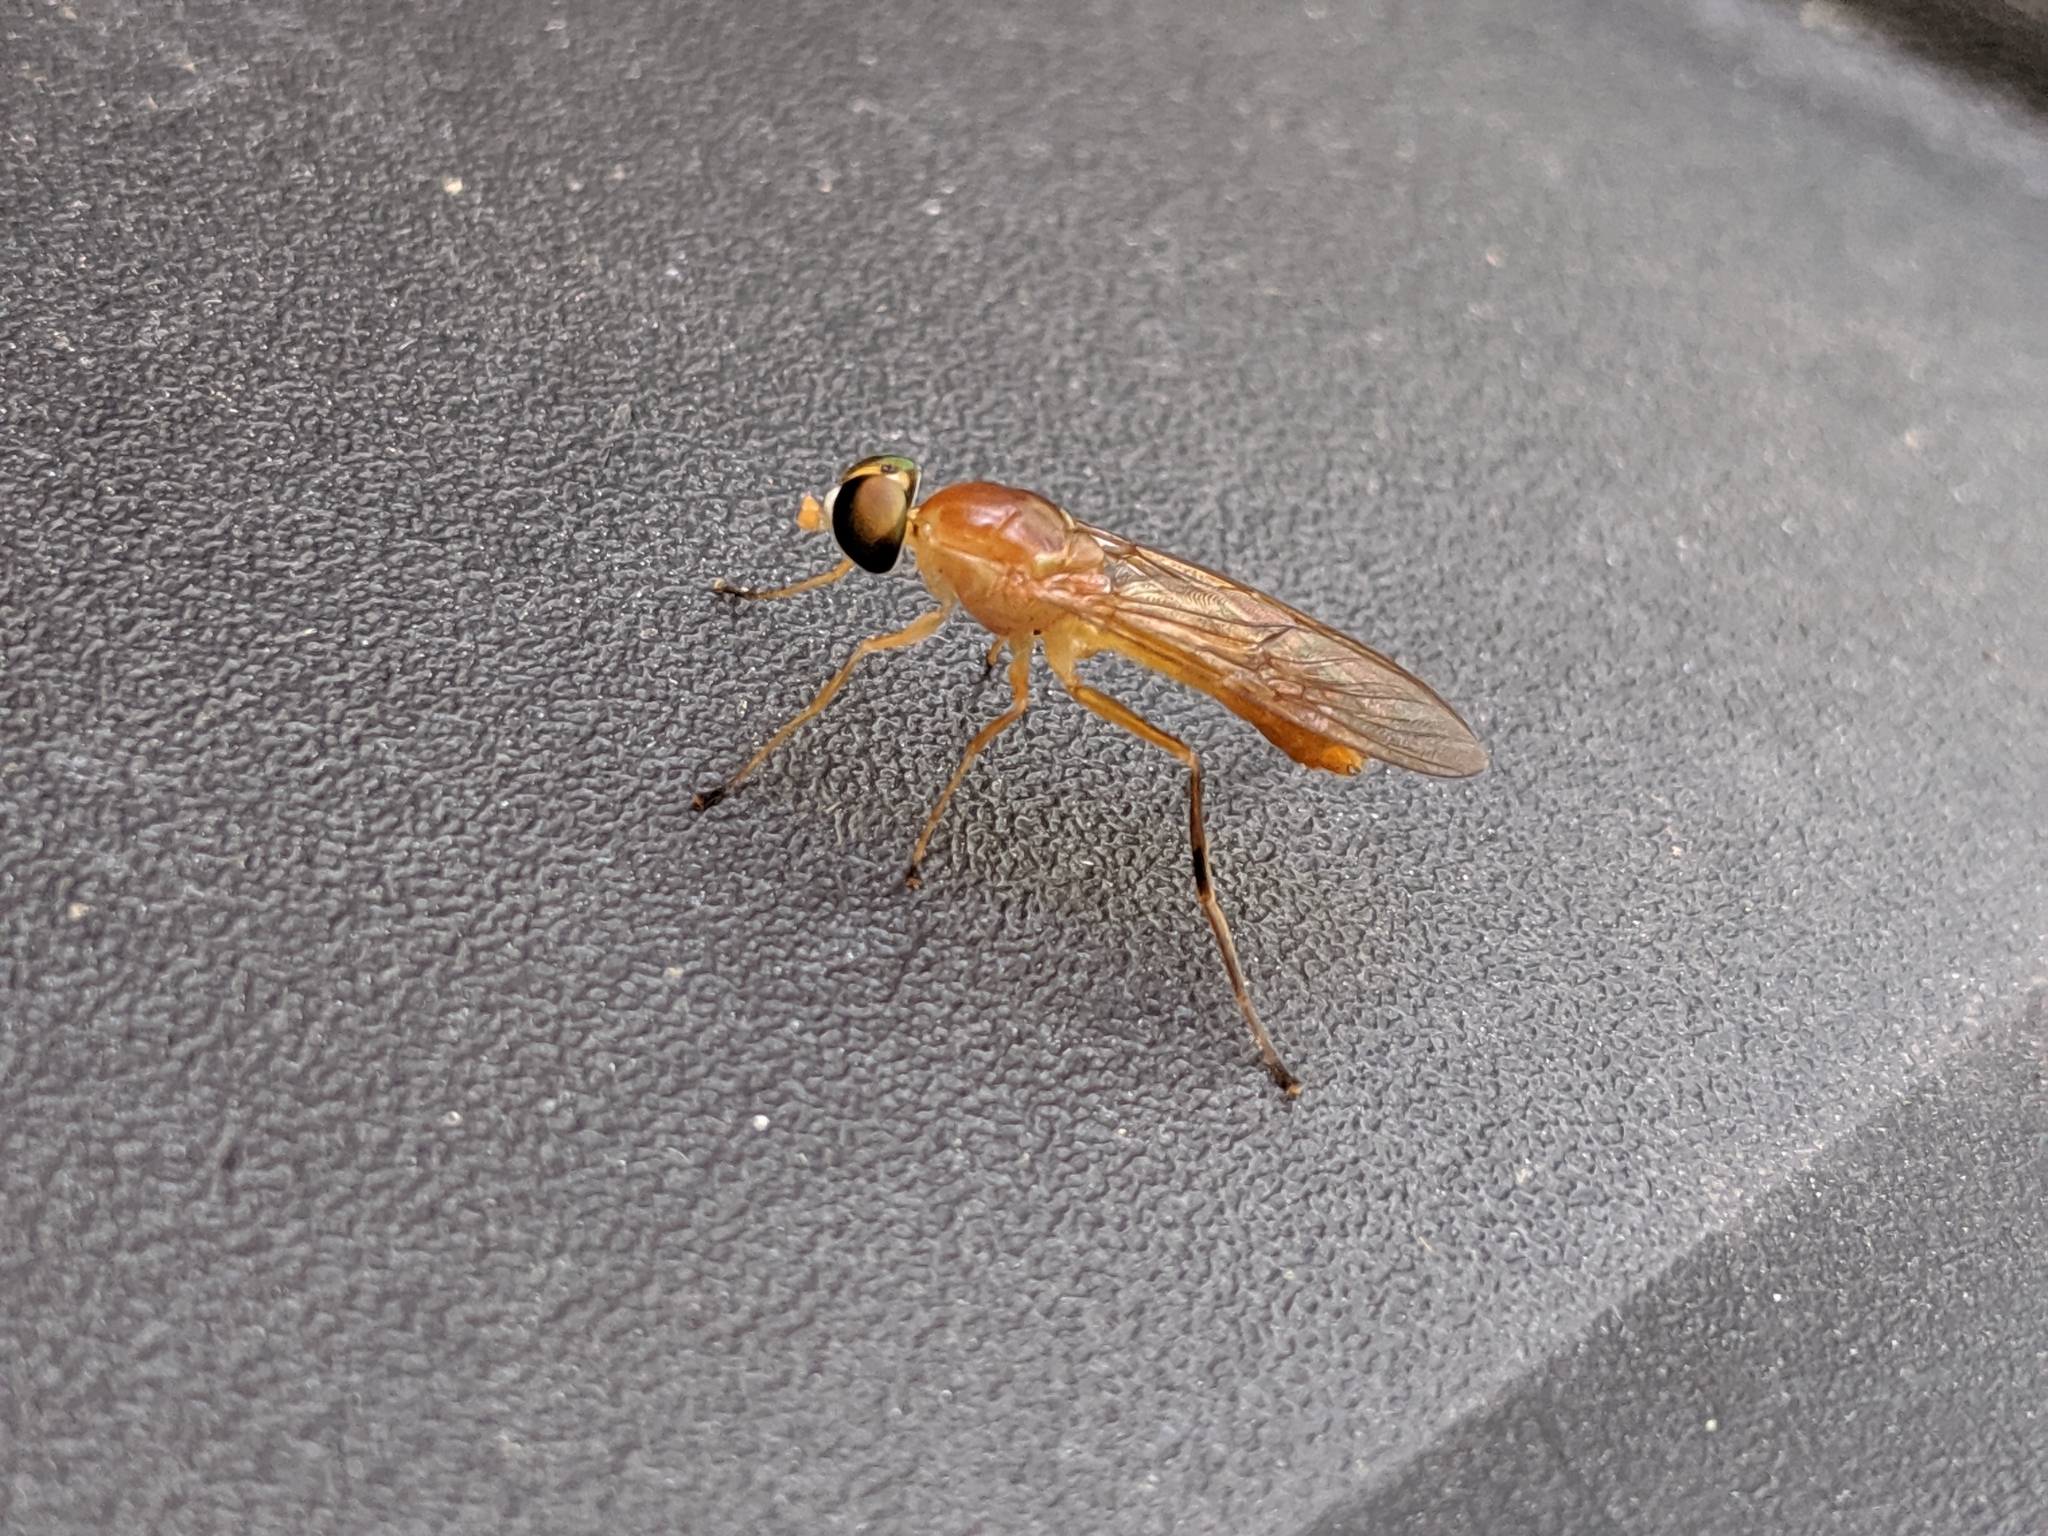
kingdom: Animalia
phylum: Arthropoda
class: Insecta
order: Diptera
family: Stratiomyidae
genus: Ptecticus
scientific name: Ptecticus trivittatus
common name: Compost fly
